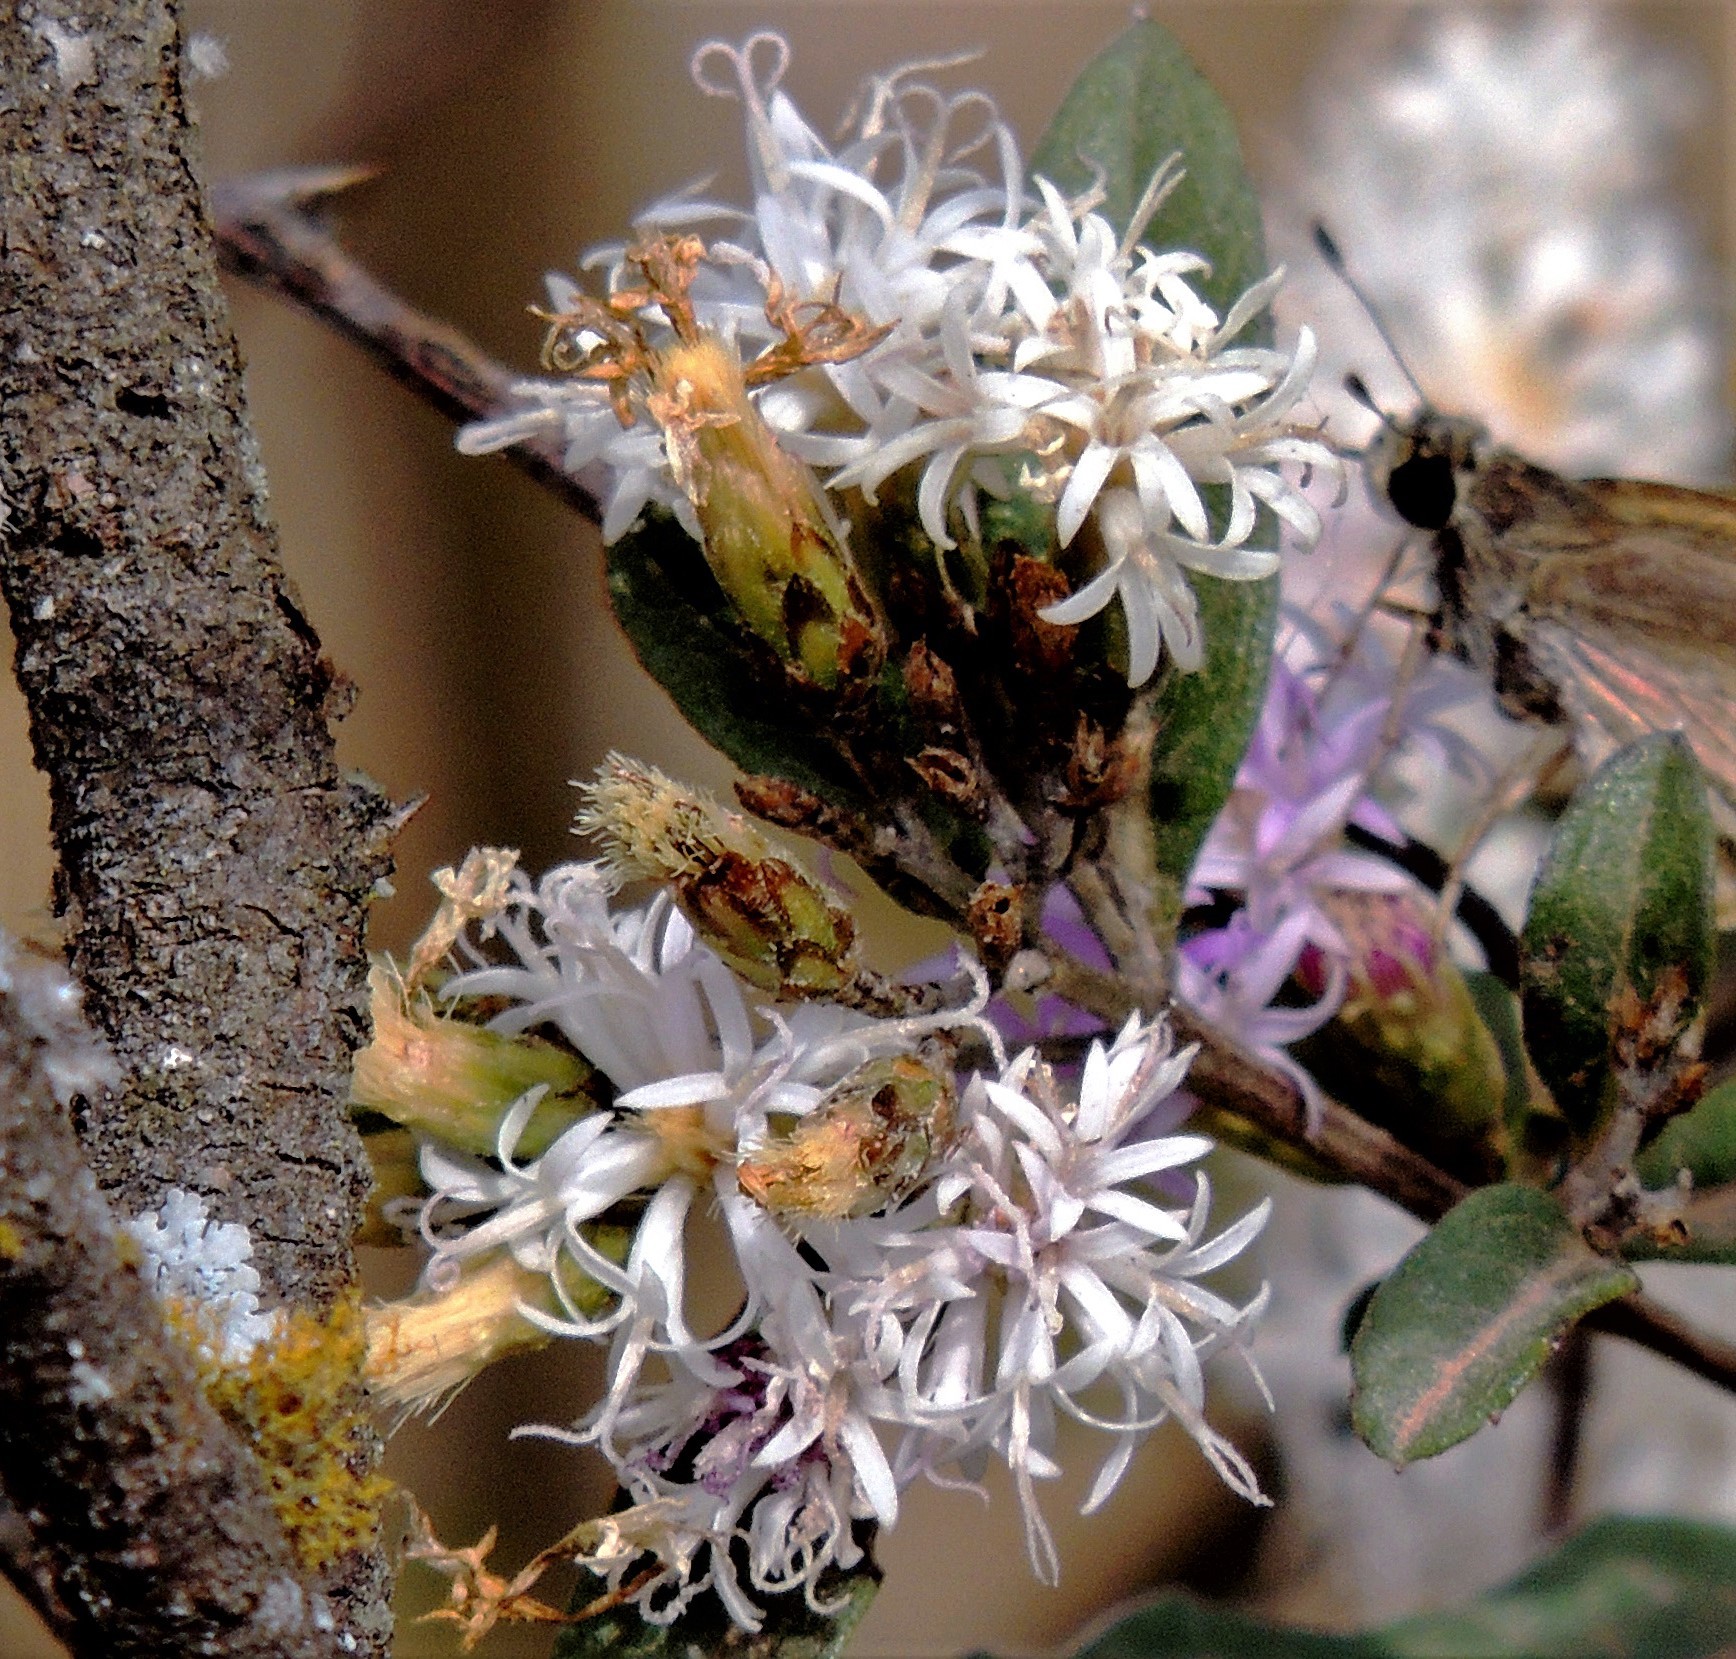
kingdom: Plantae
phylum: Tracheophyta
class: Magnoliopsida
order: Asterales
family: Asteraceae
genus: Vernonanthura
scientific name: Vernonanthura squamulosa
